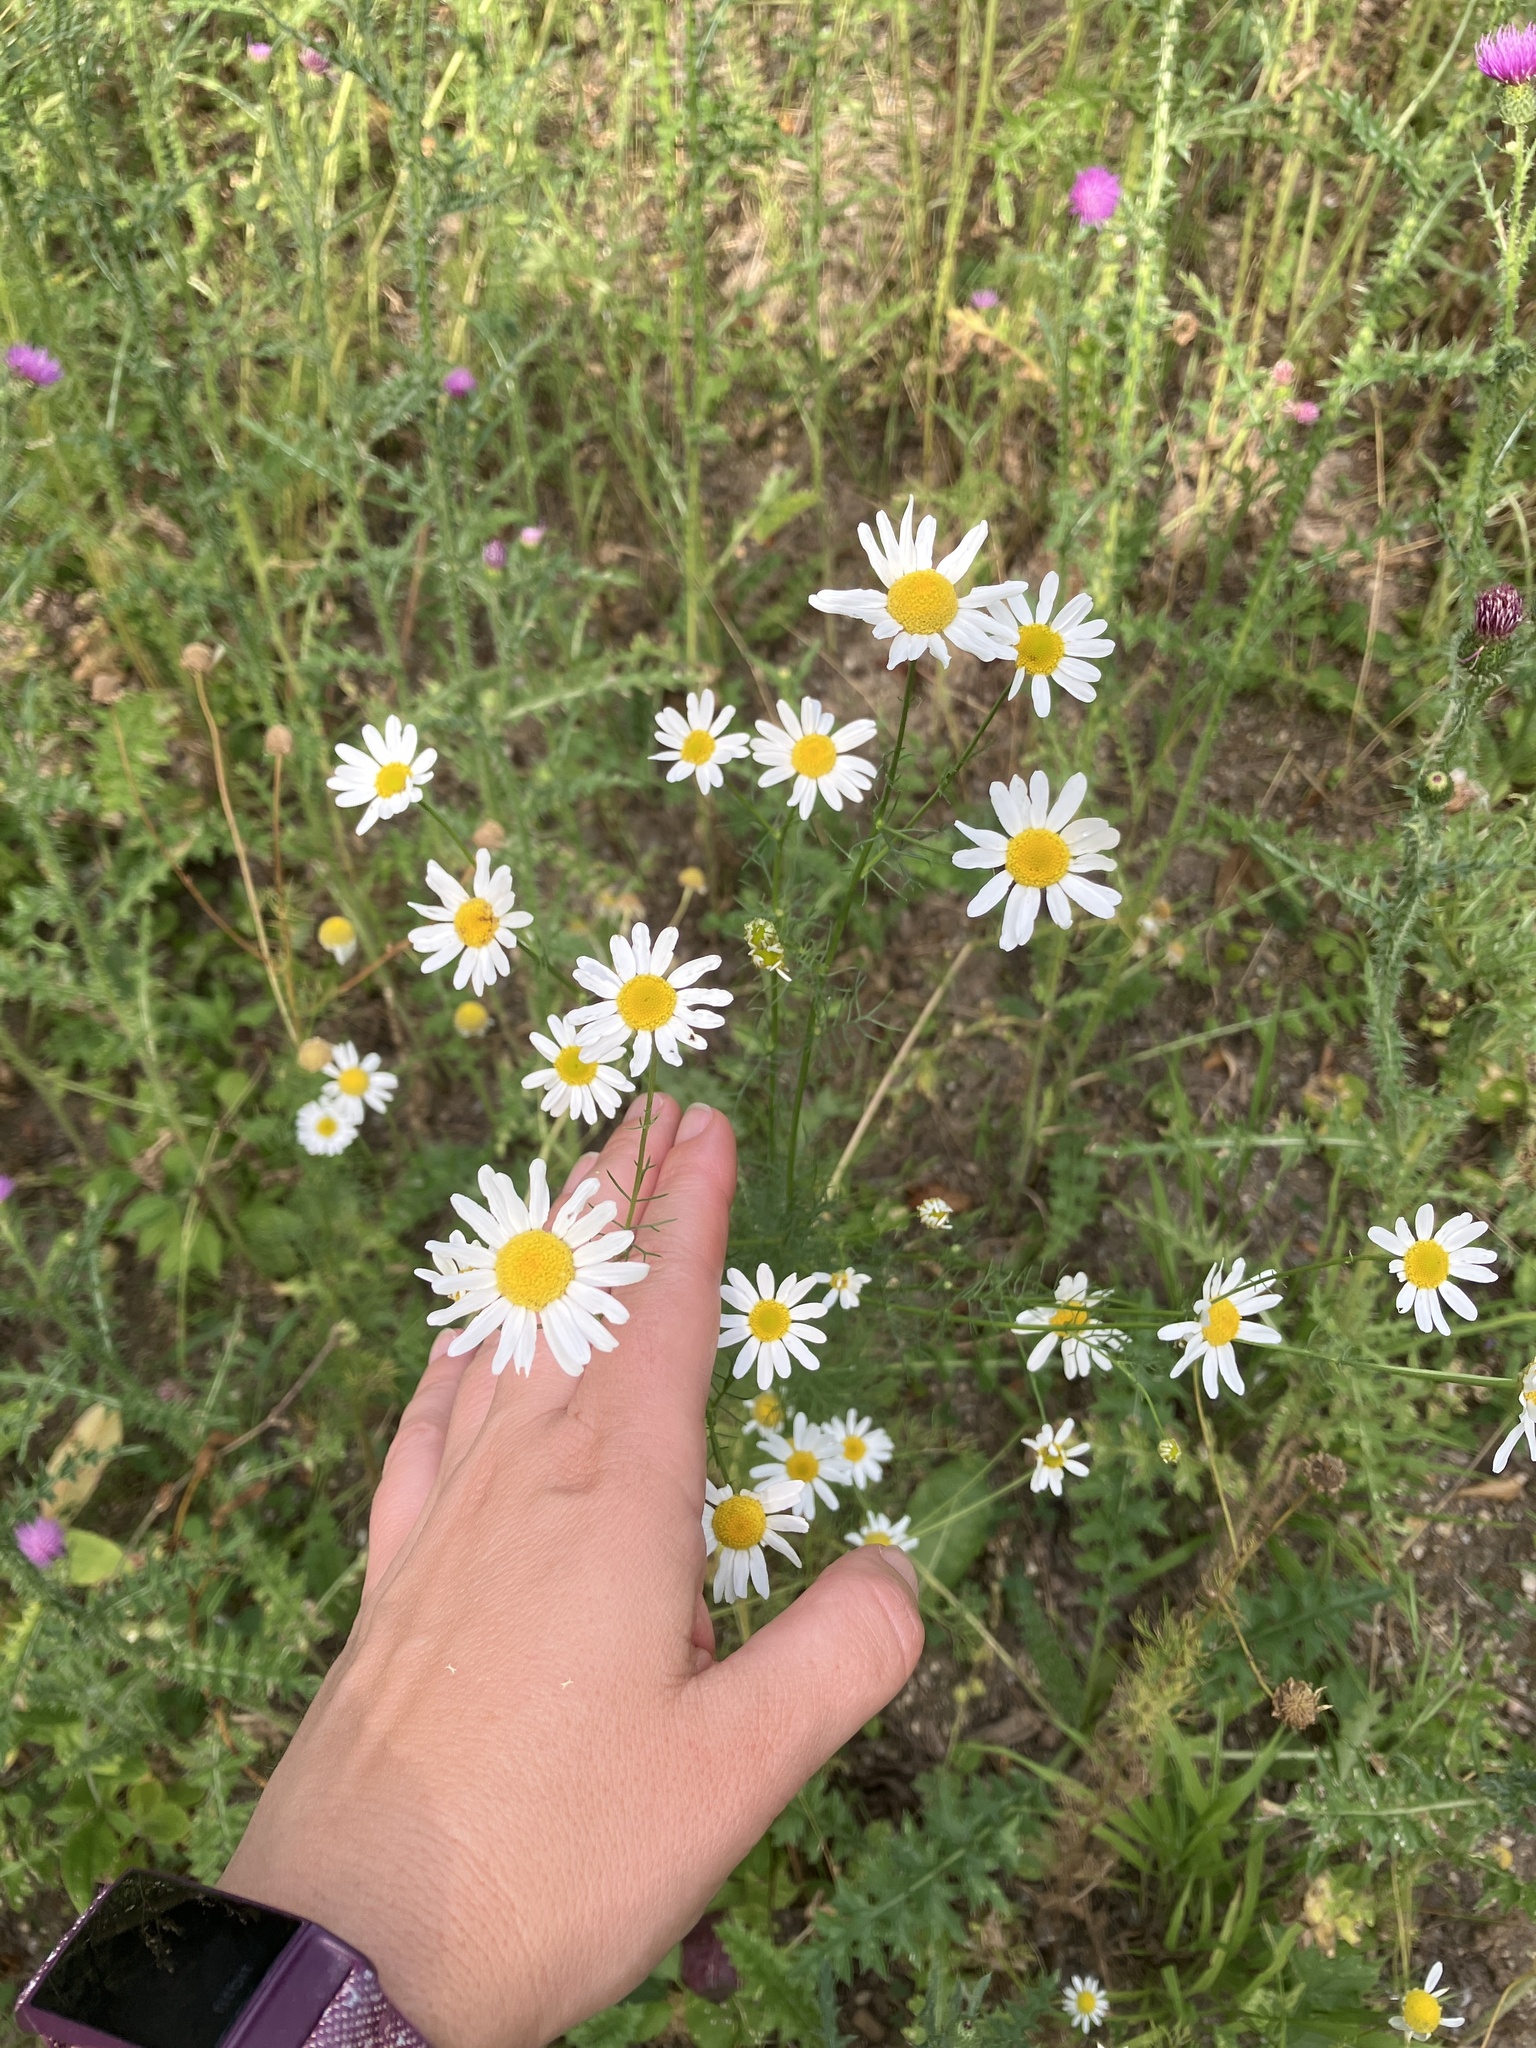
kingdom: Plantae
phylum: Tracheophyta
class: Magnoliopsida
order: Asterales
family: Asteraceae
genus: Tripleurospermum
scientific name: Tripleurospermum inodorum
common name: Scentless mayweed
